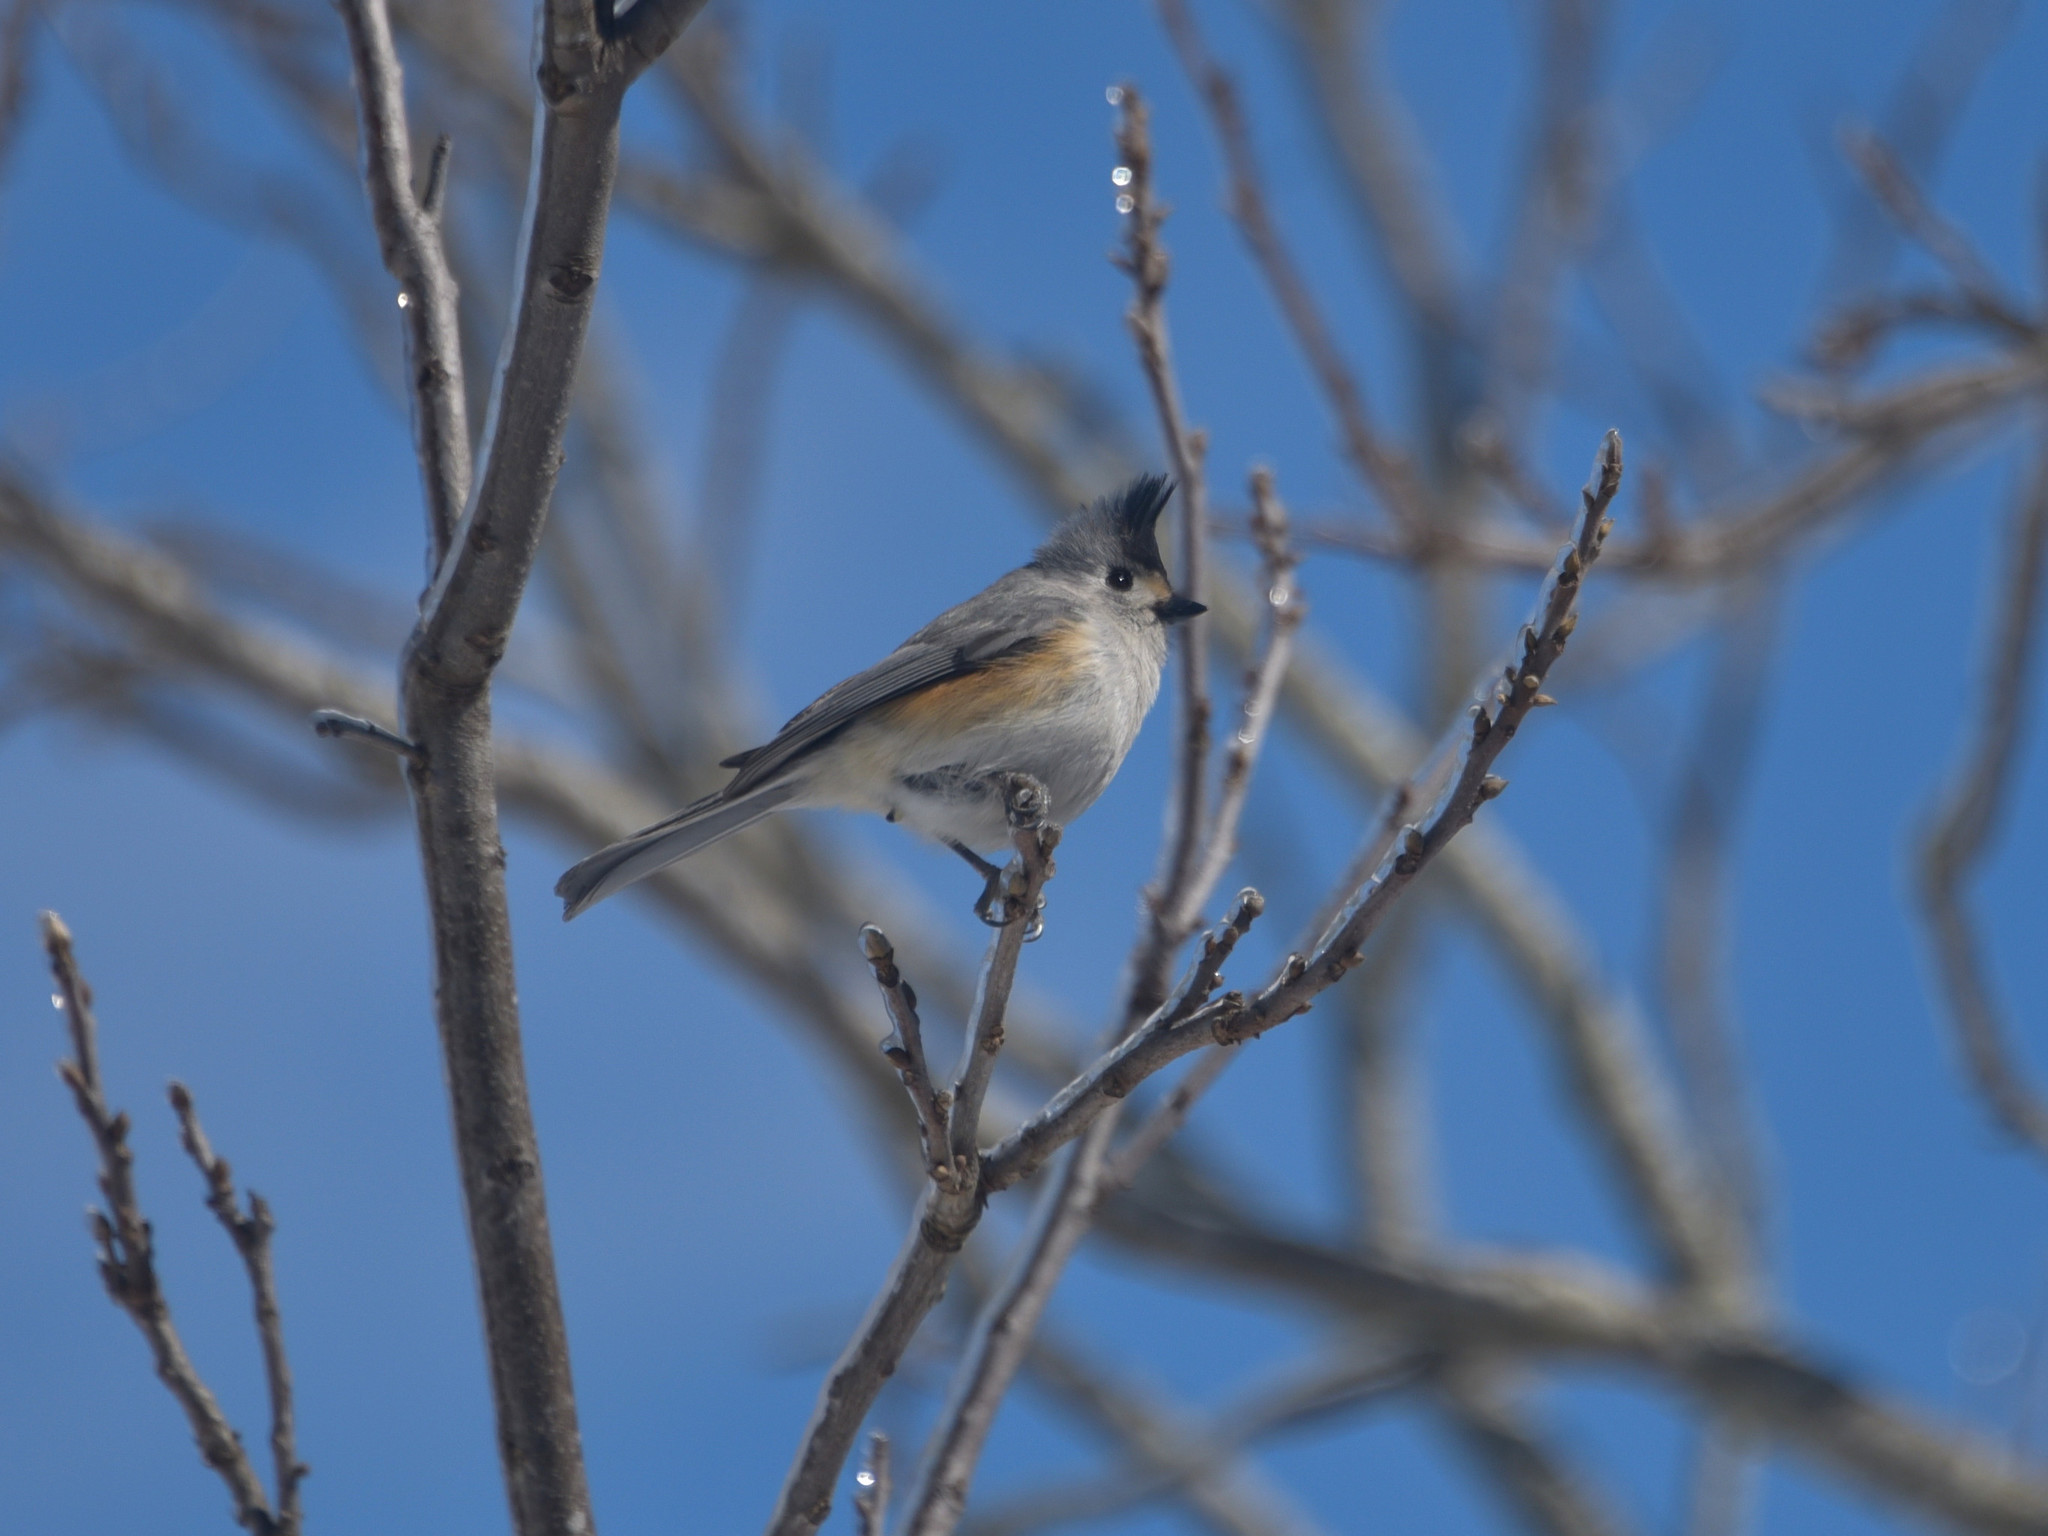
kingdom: Animalia
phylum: Chordata
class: Aves
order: Passeriformes
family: Paridae
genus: Baeolophus
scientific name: Baeolophus atricristatus
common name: Black-crested titmouse
